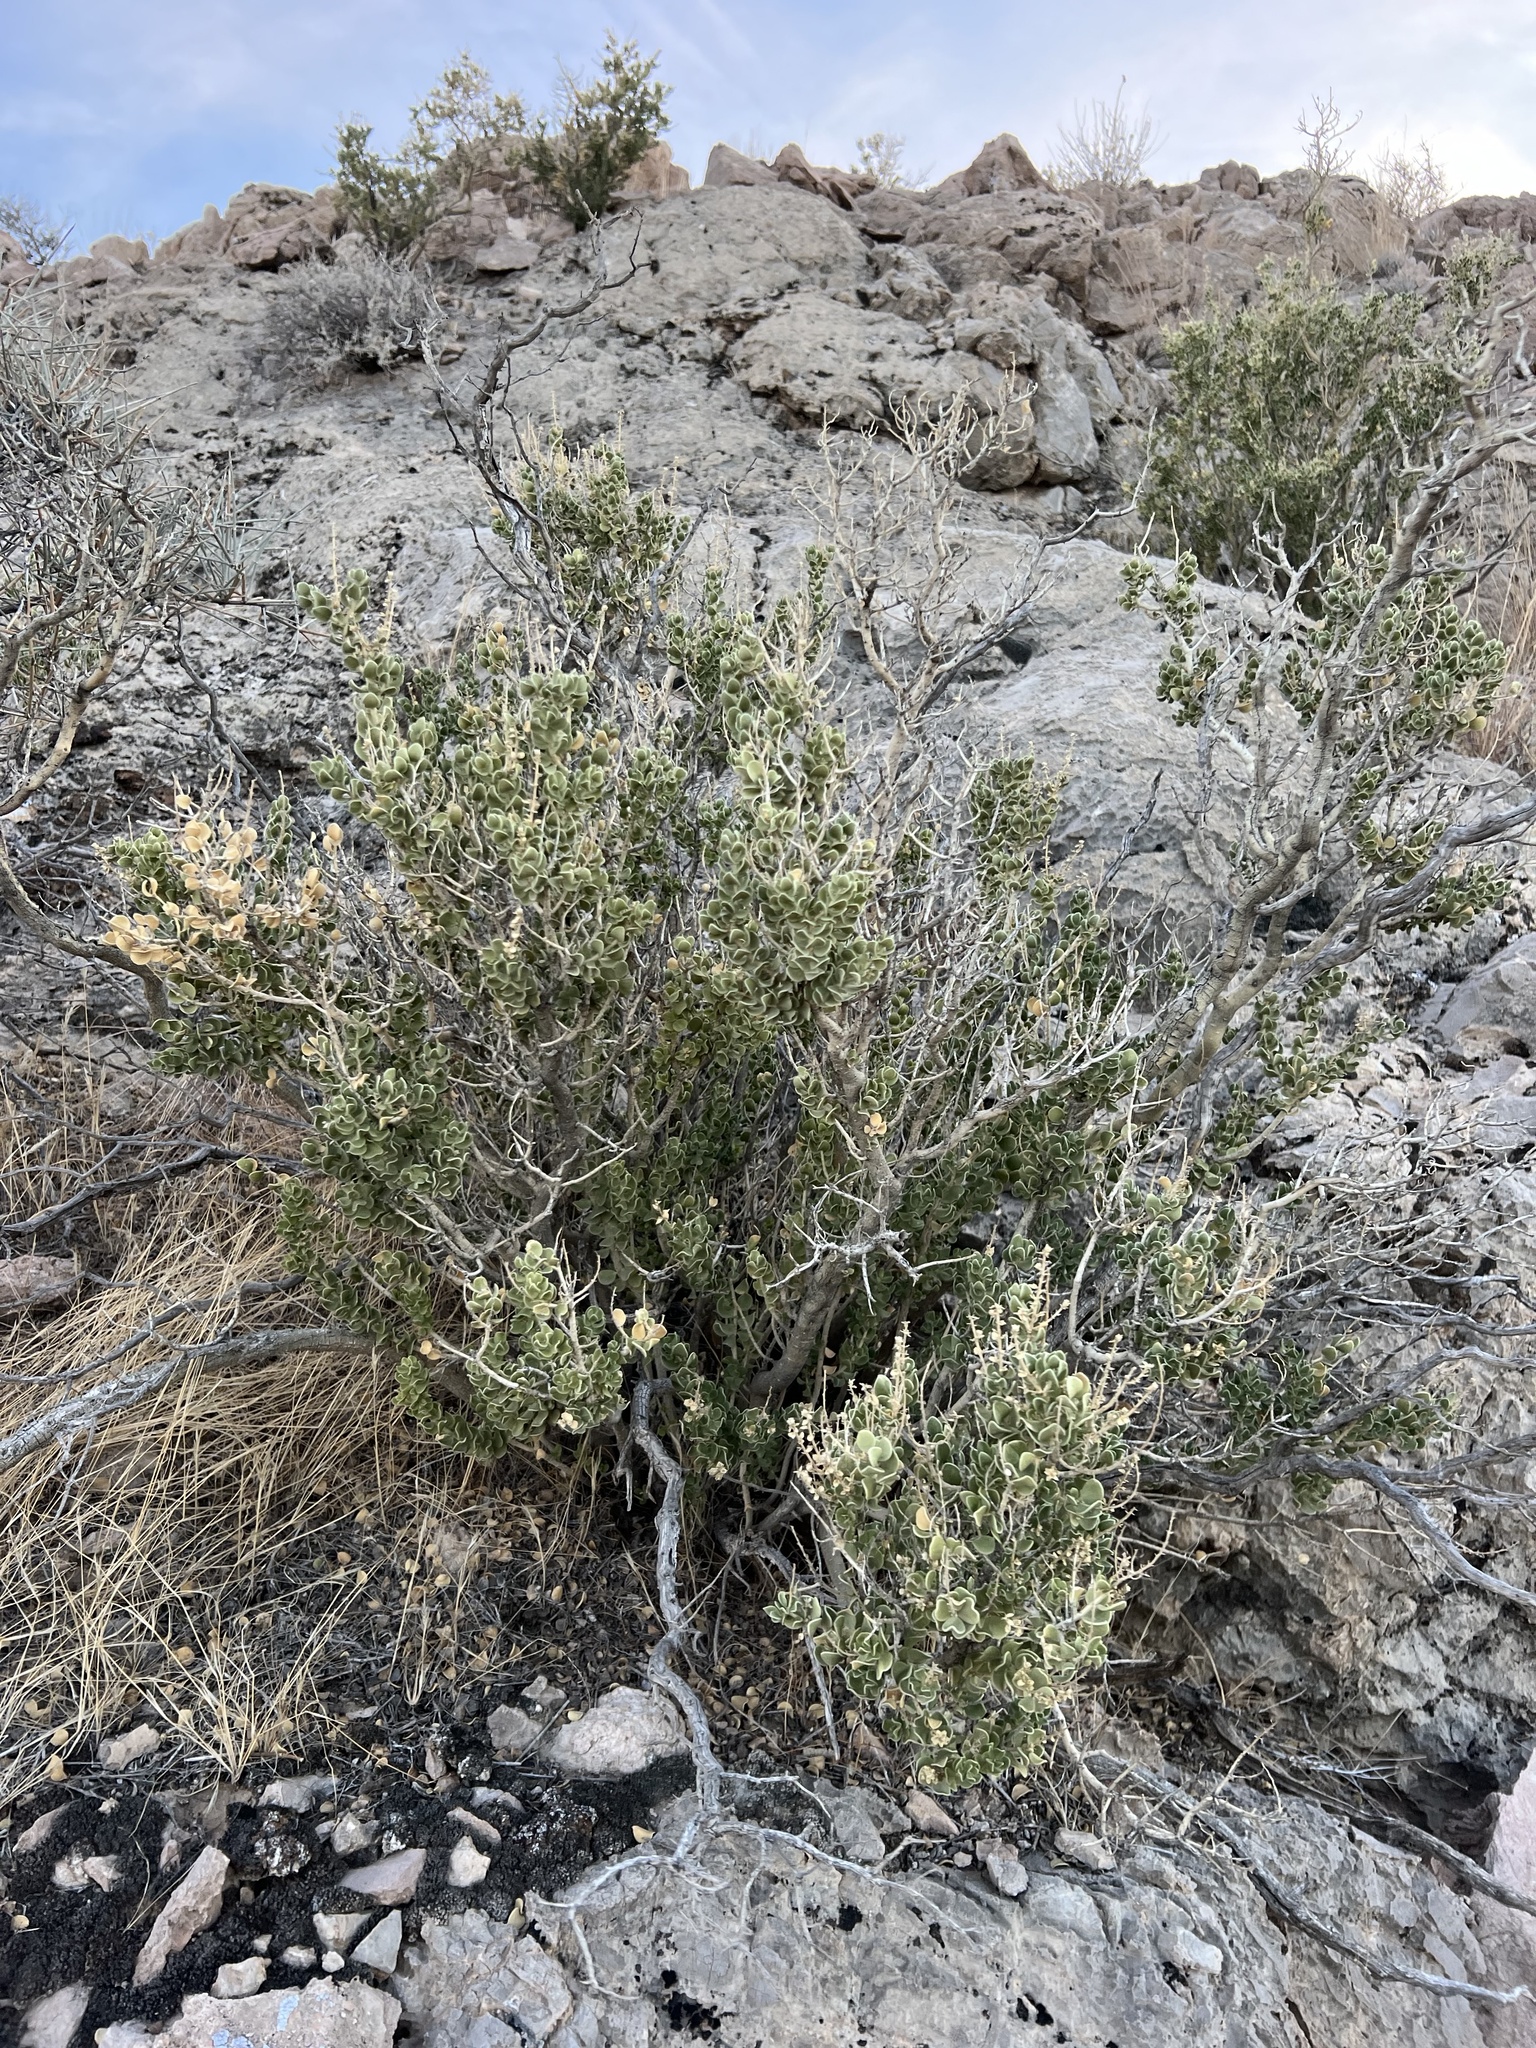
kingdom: Plantae
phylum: Tracheophyta
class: Magnoliopsida
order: Celastrales
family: Celastraceae
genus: Mortonia
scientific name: Mortonia utahensis
